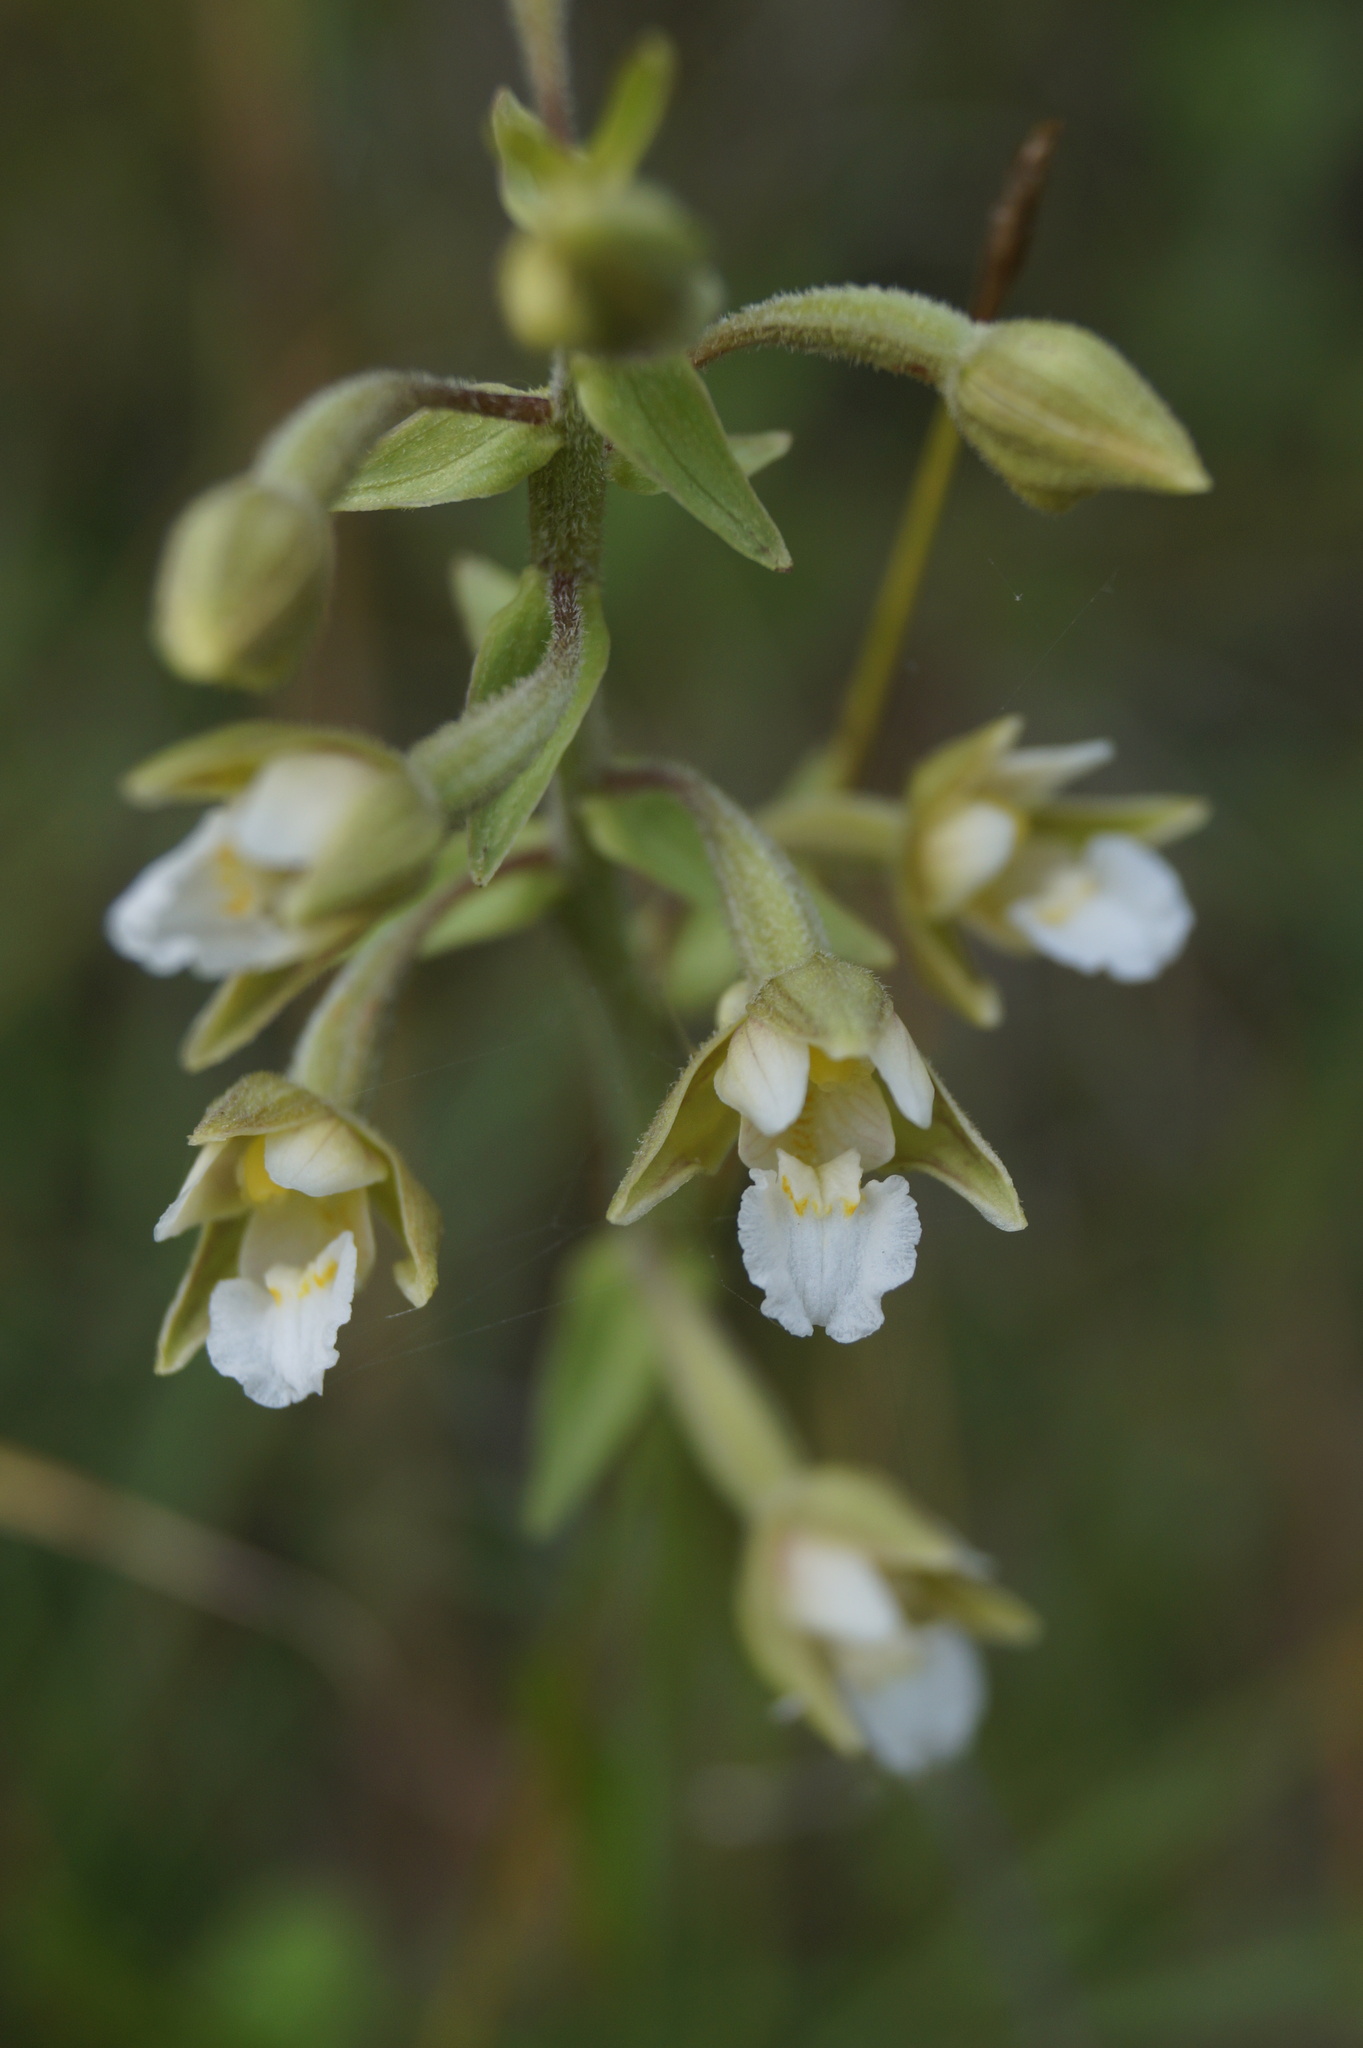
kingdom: Plantae
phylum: Tracheophyta
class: Liliopsida
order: Asparagales
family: Orchidaceae
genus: Epipactis
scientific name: Epipactis palustris
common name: Marsh helleborine
